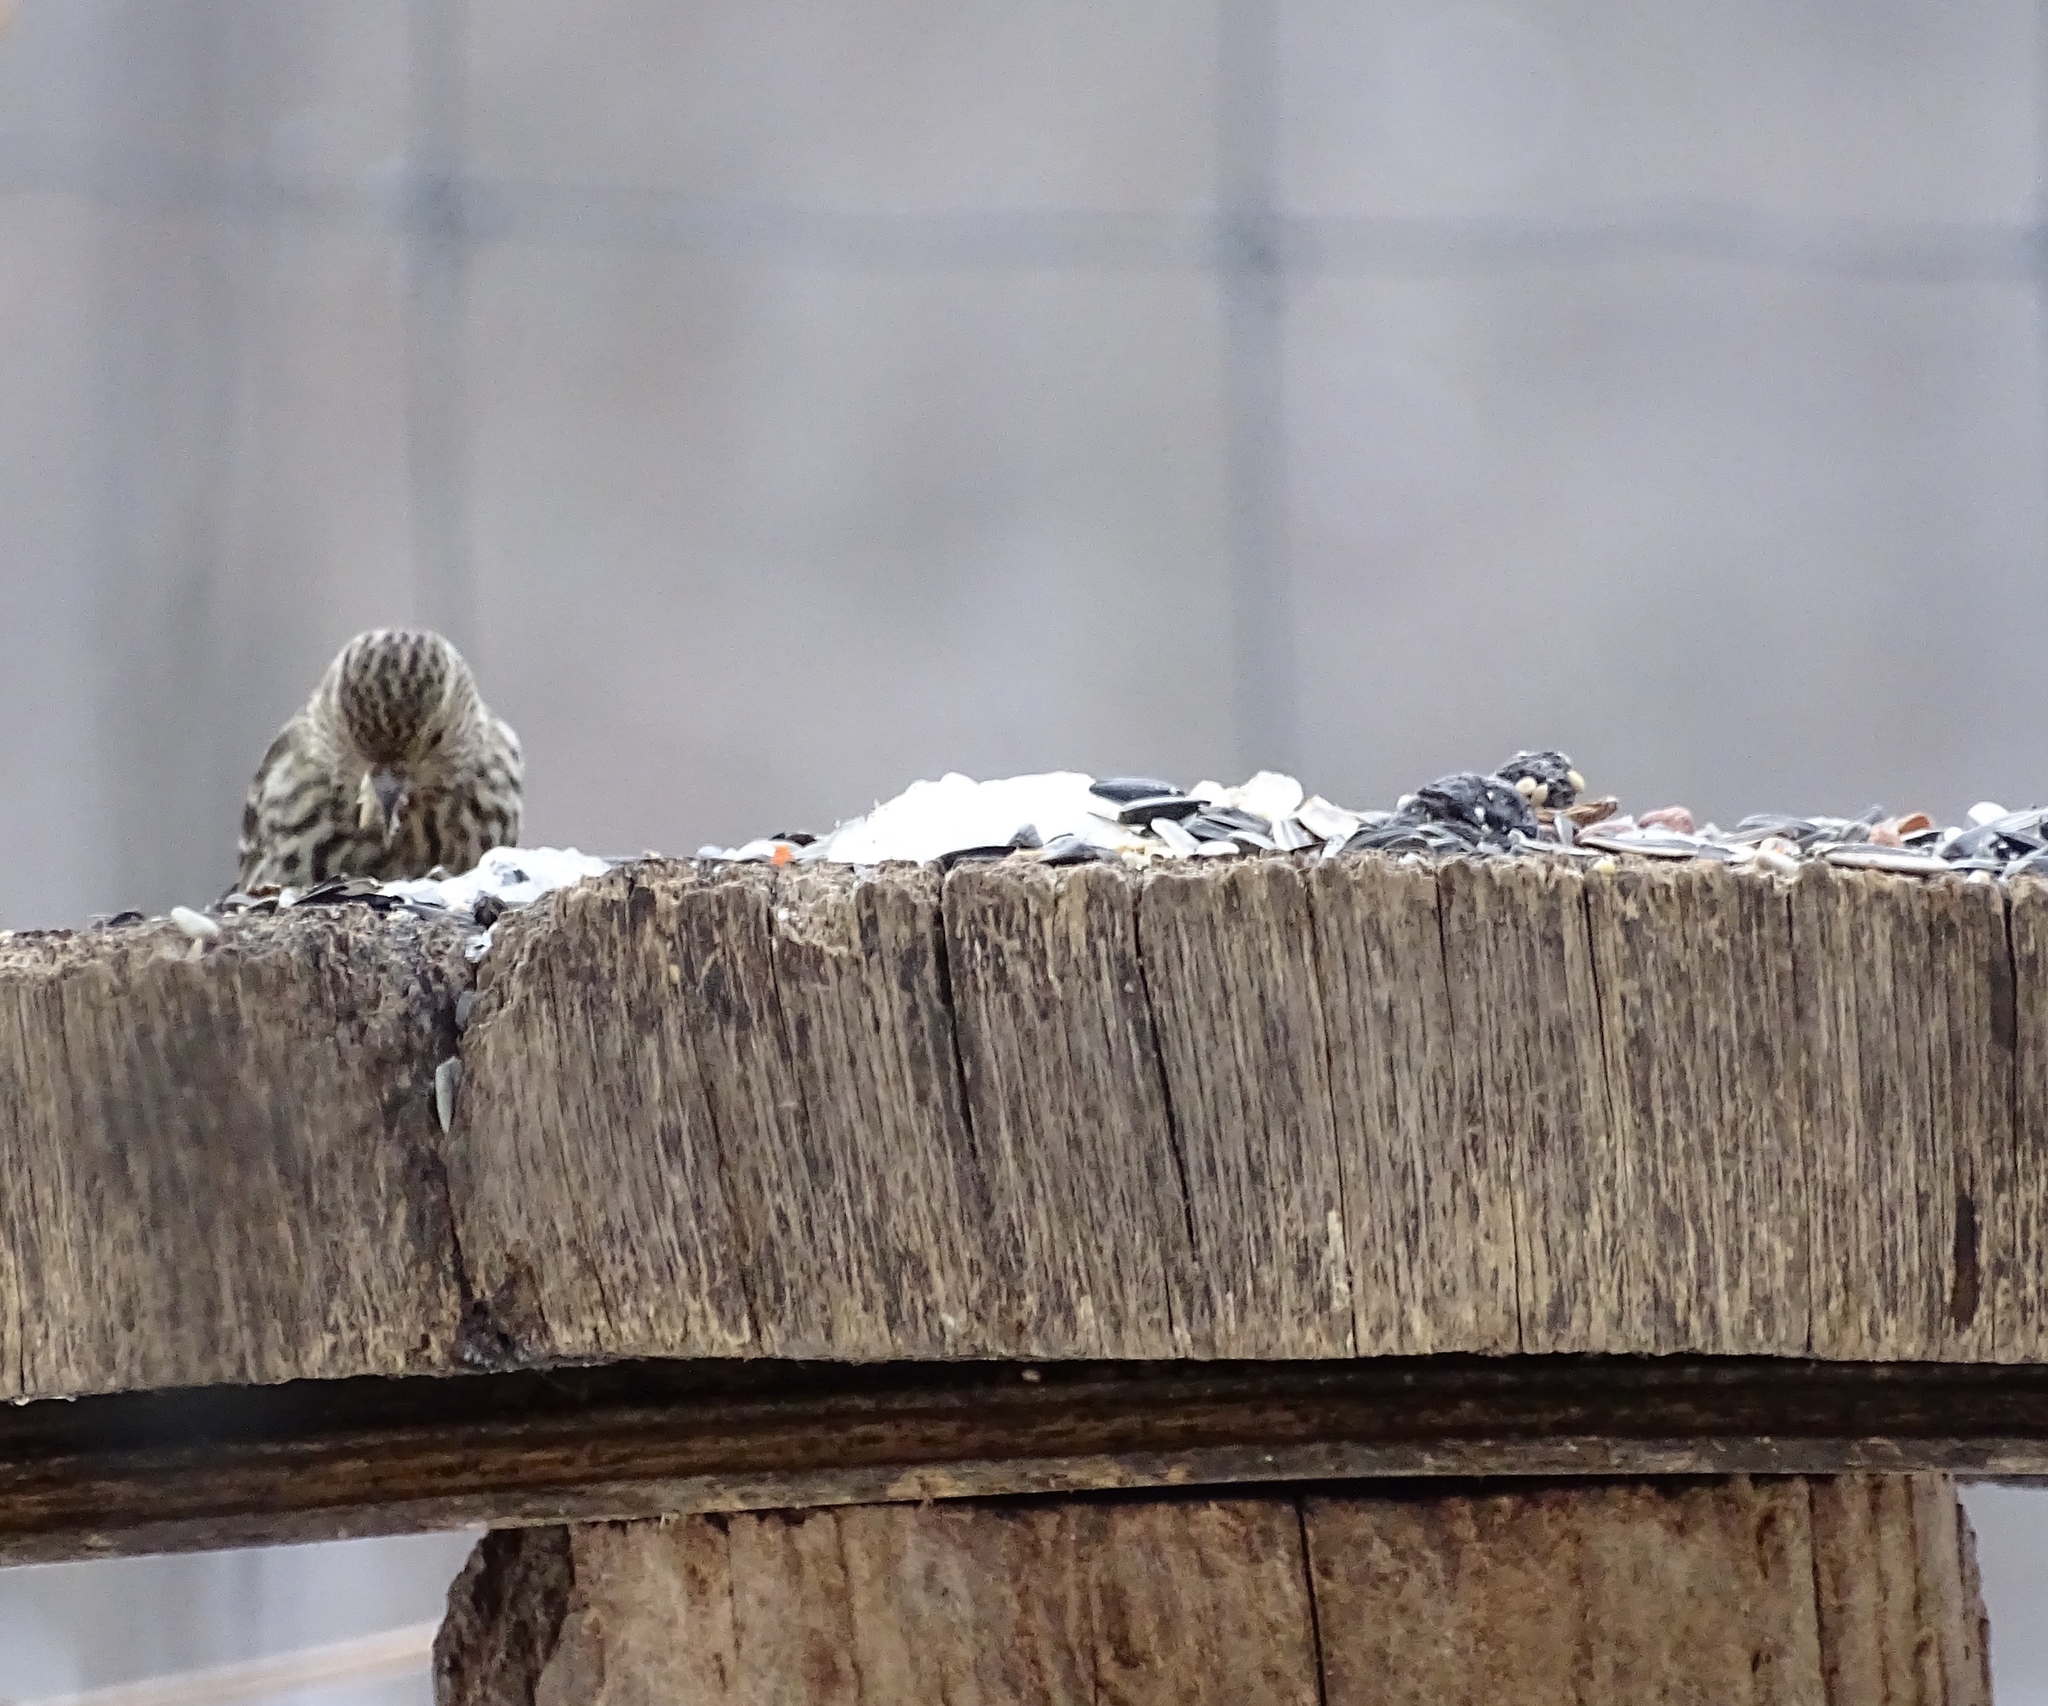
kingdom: Animalia
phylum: Chordata
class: Aves
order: Passeriformes
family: Fringillidae
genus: Spinus
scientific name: Spinus pinus
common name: Pine siskin
